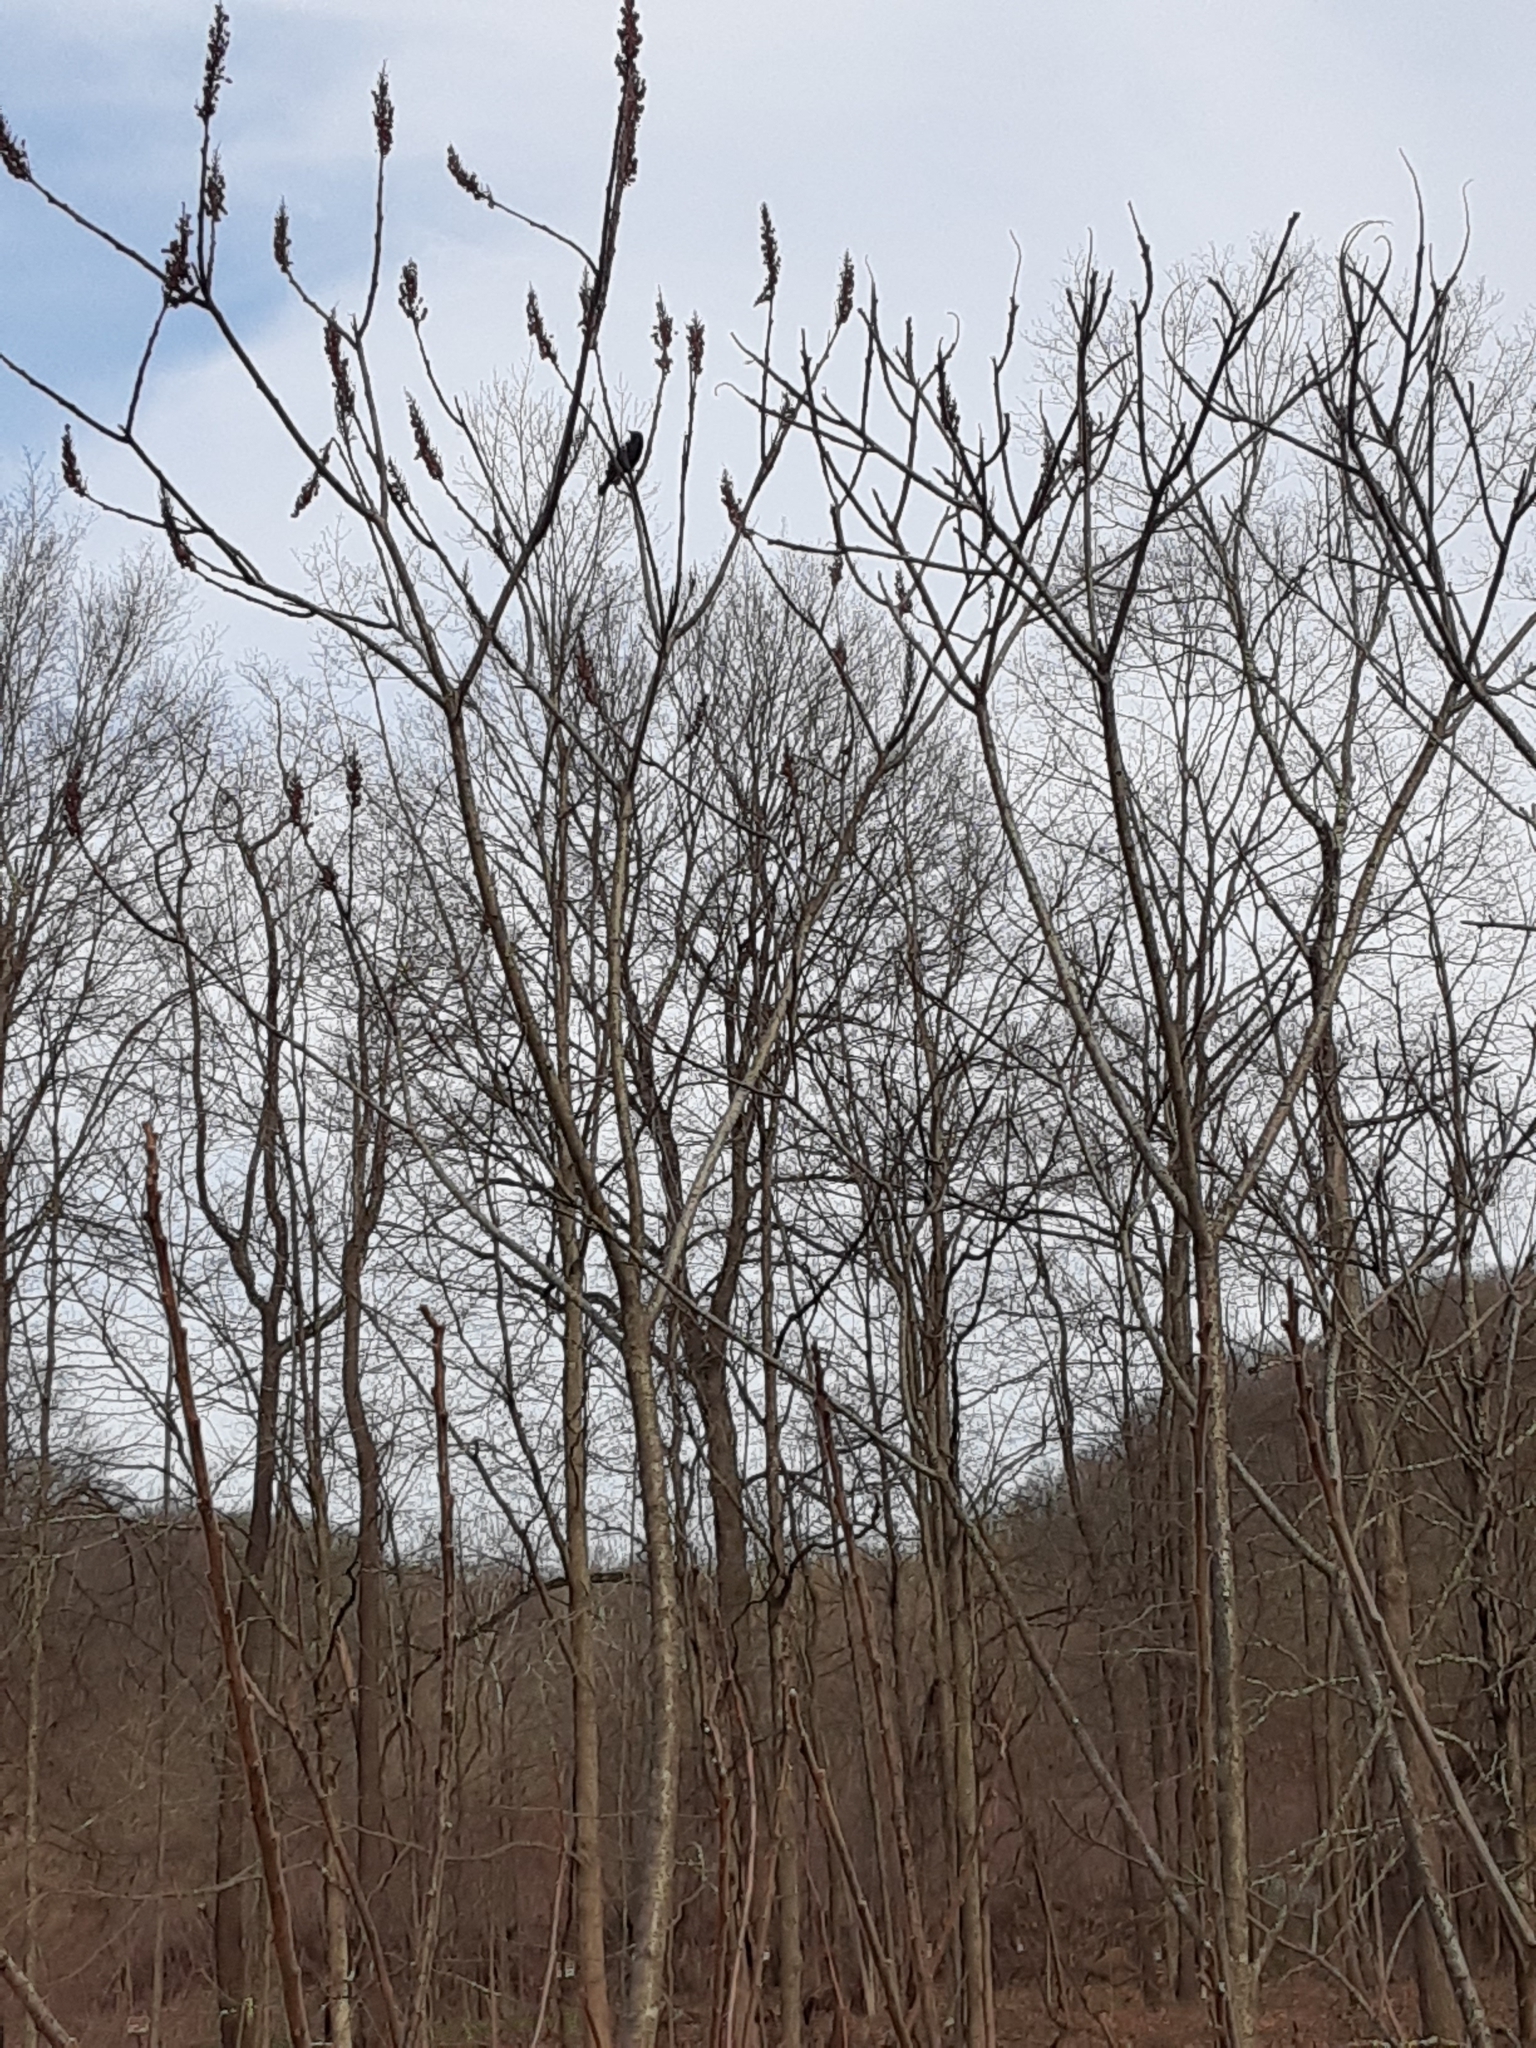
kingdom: Animalia
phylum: Chordata
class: Aves
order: Passeriformes
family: Icteridae
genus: Agelaius
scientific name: Agelaius phoeniceus
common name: Red-winged blackbird
